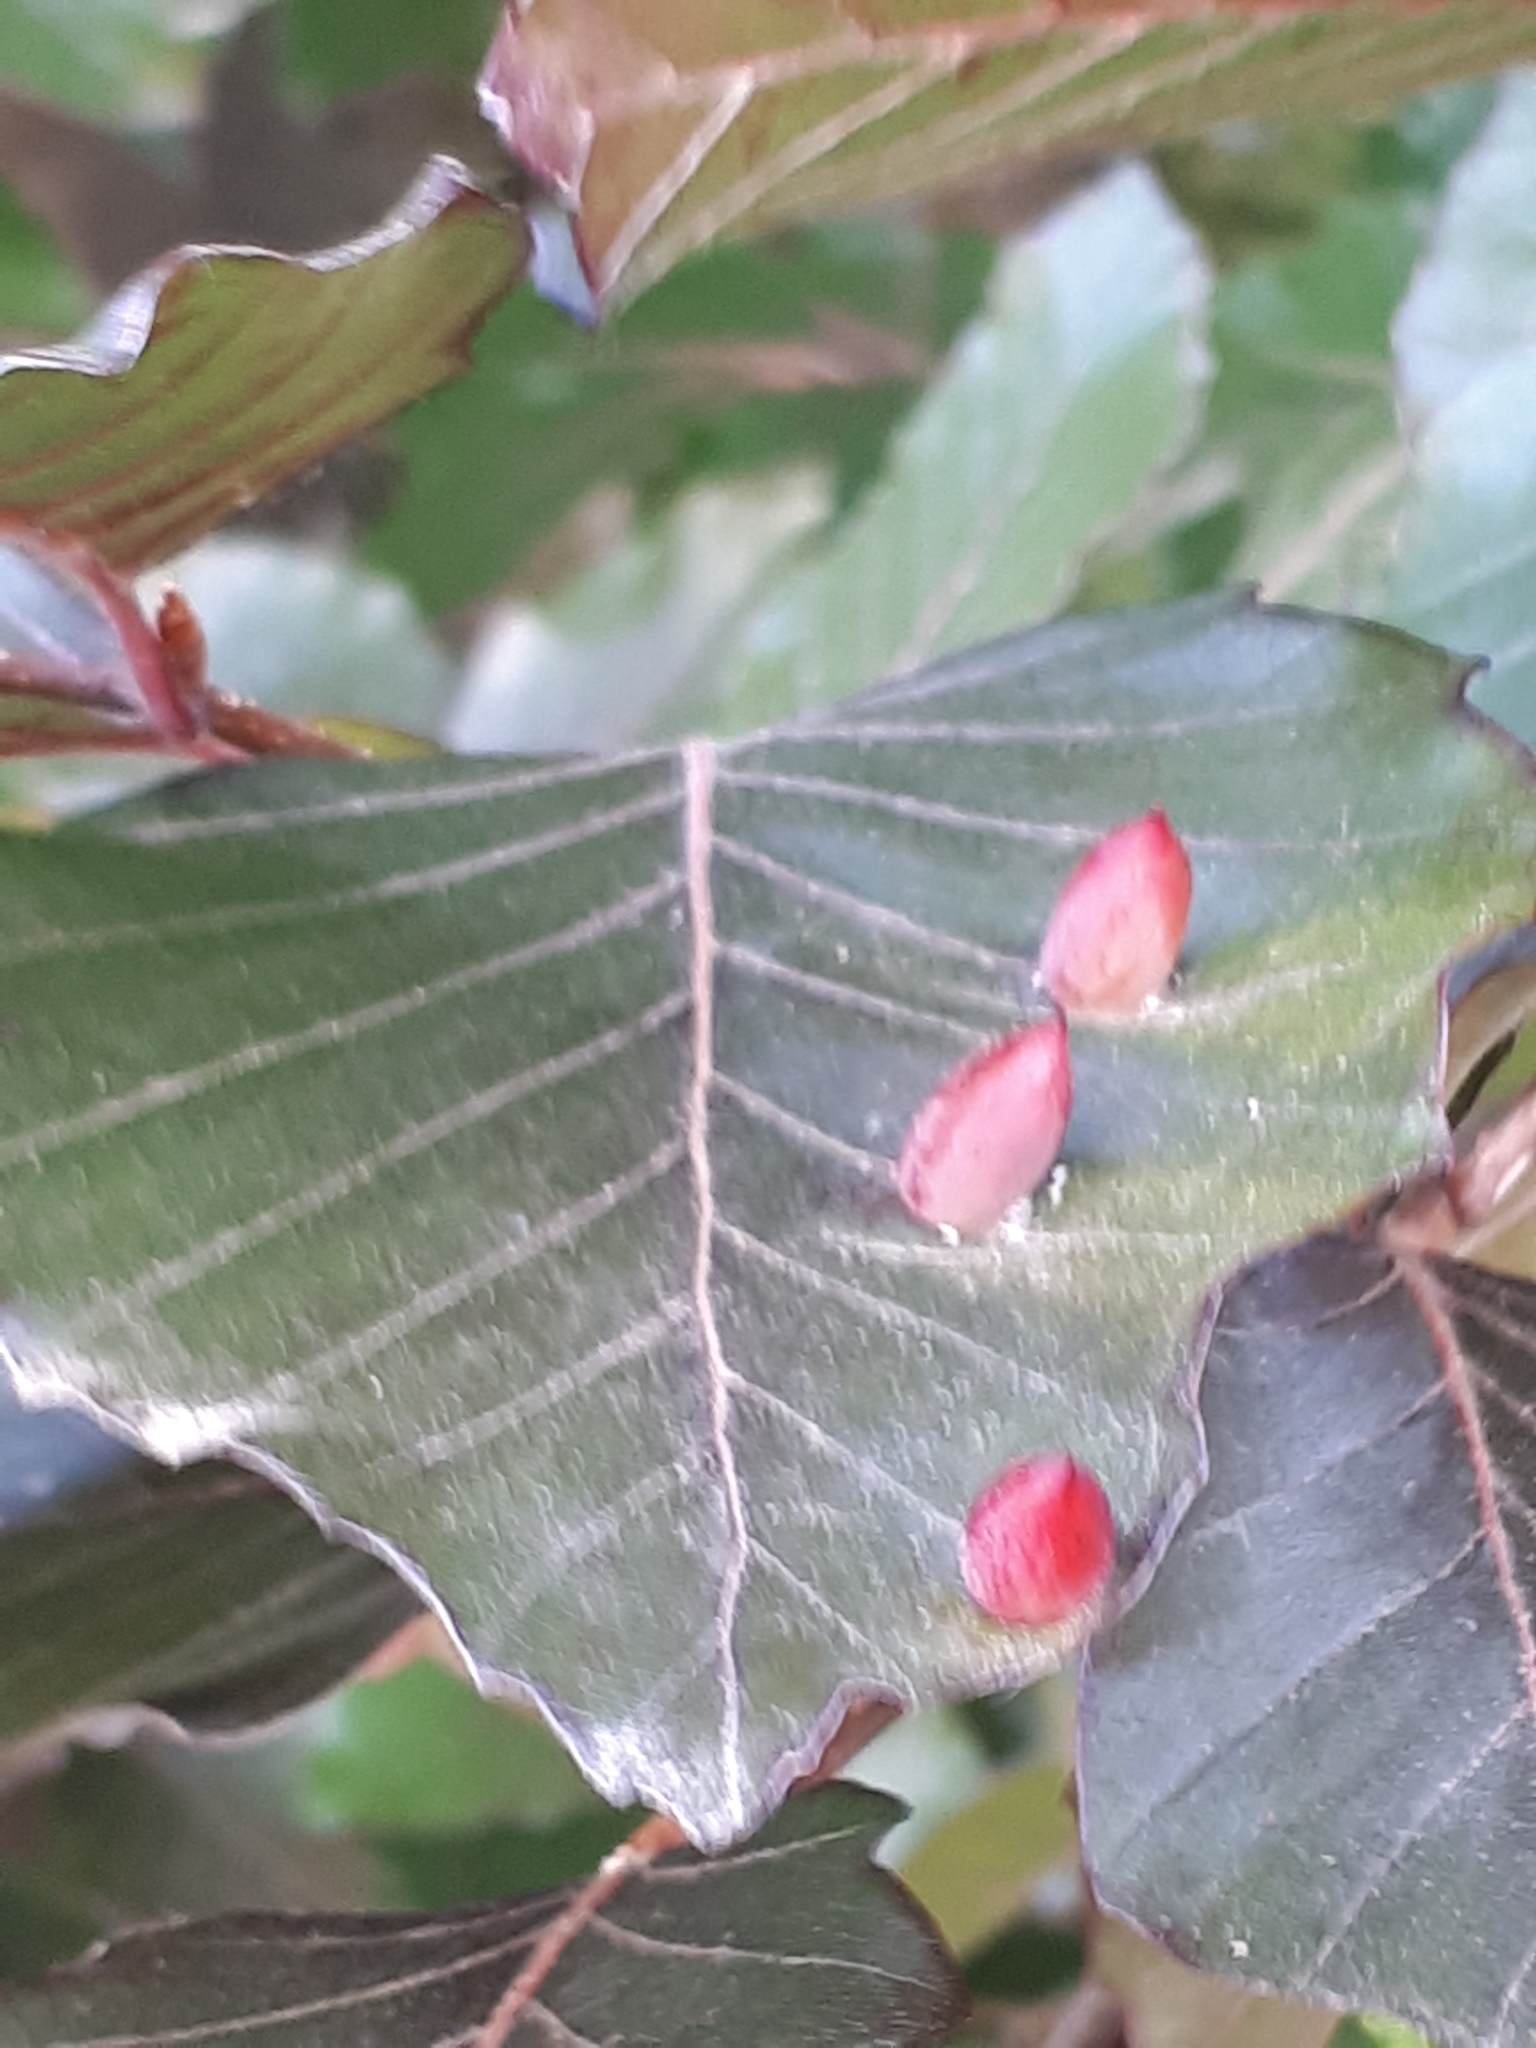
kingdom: Animalia
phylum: Arthropoda
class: Insecta
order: Diptera
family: Cecidomyiidae
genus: Mikiola
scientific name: Mikiola fagi
